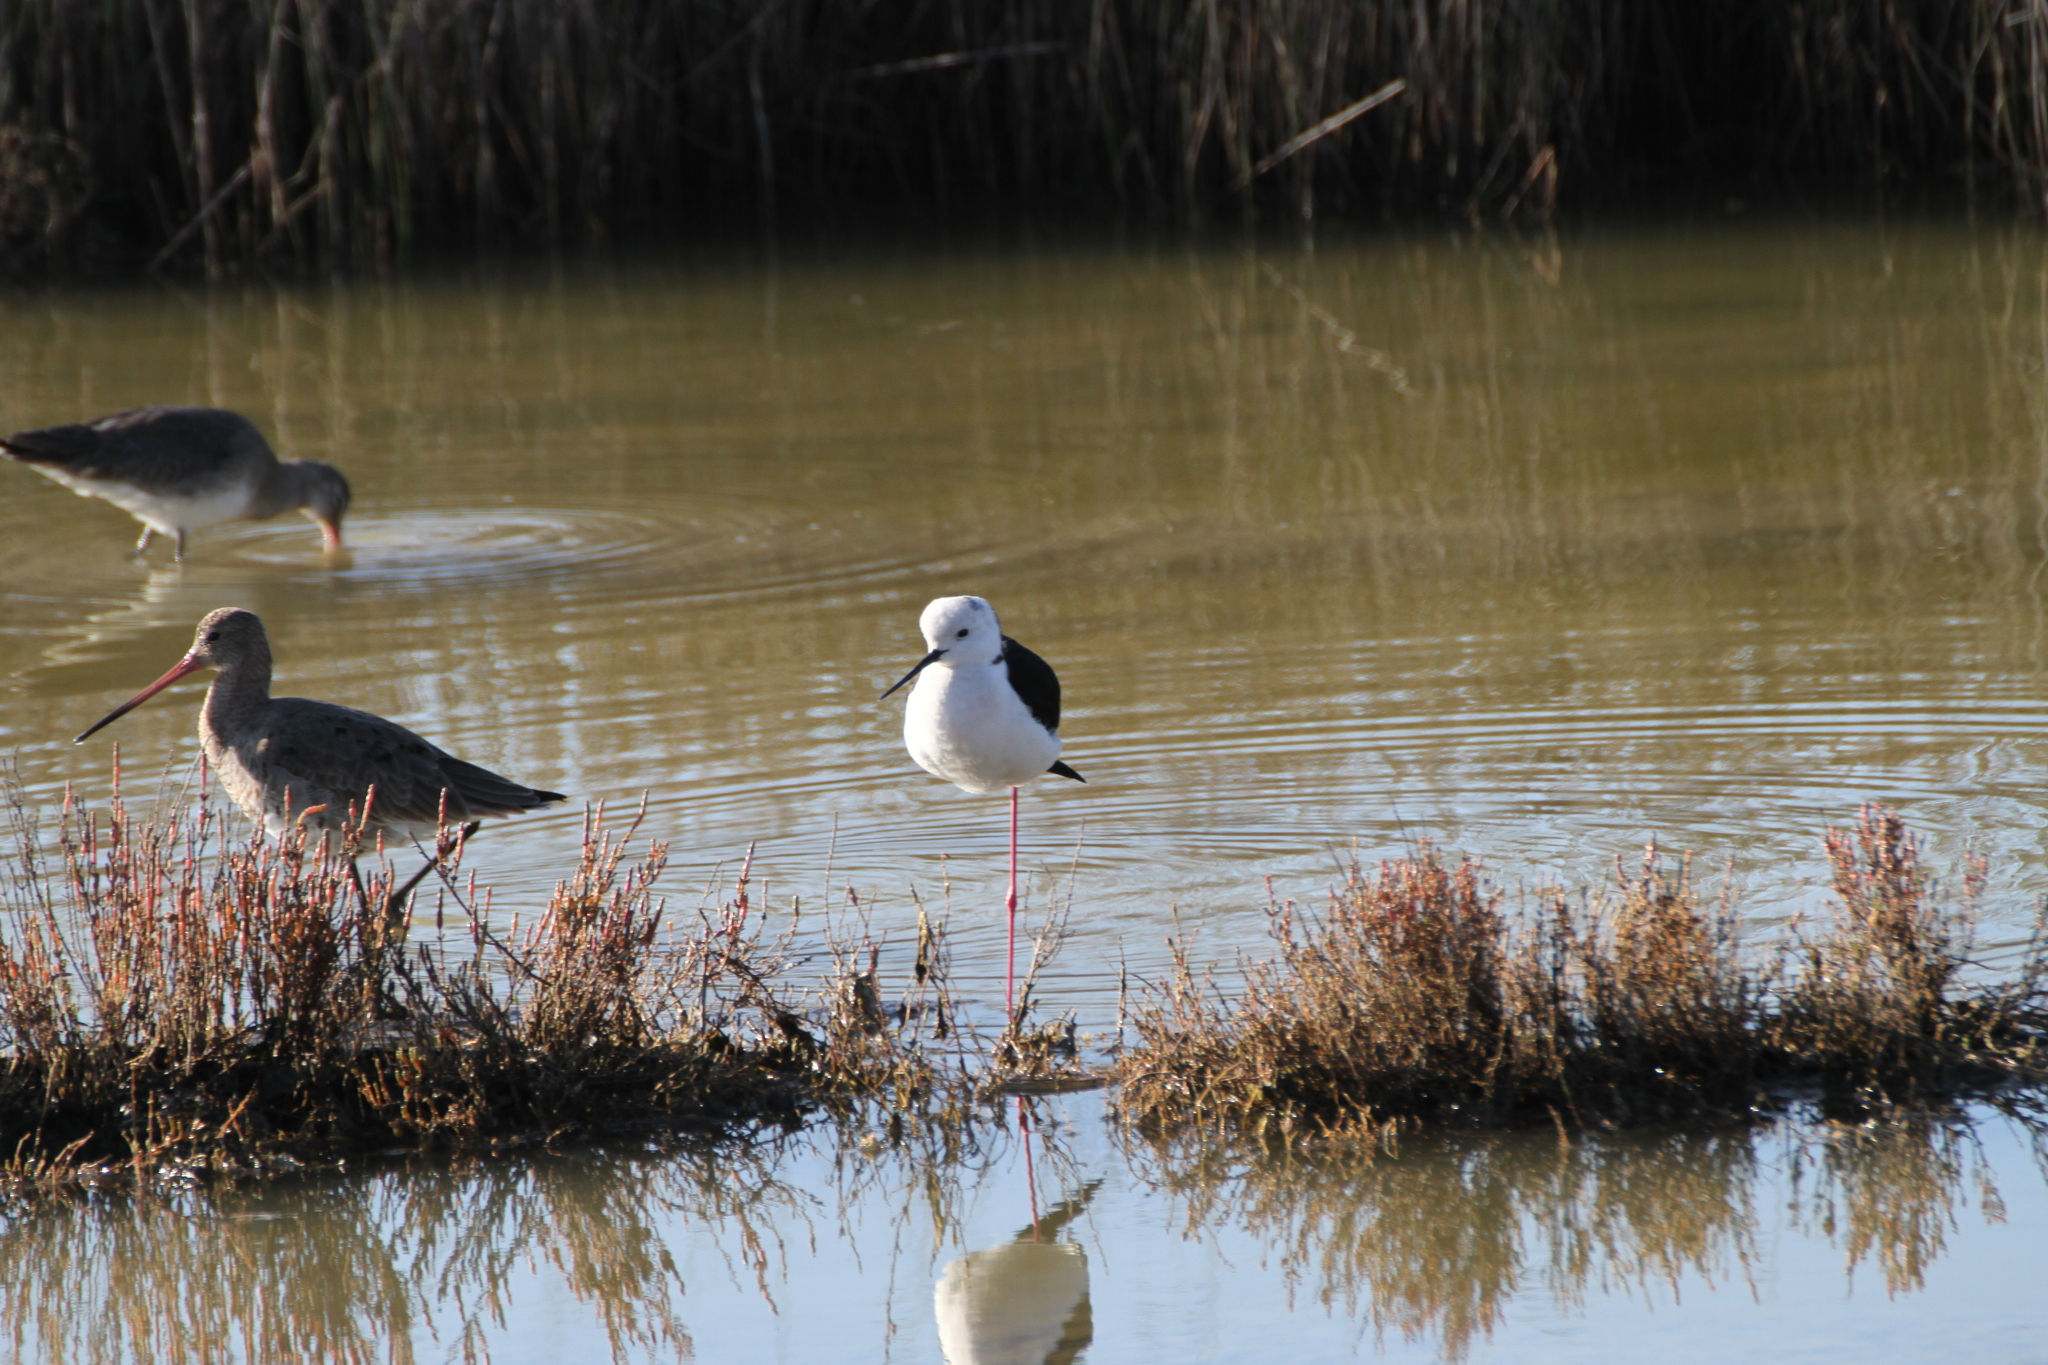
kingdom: Animalia
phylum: Chordata
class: Aves
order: Charadriiformes
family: Recurvirostridae
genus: Himantopus
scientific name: Himantopus himantopus
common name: Black-winged stilt
